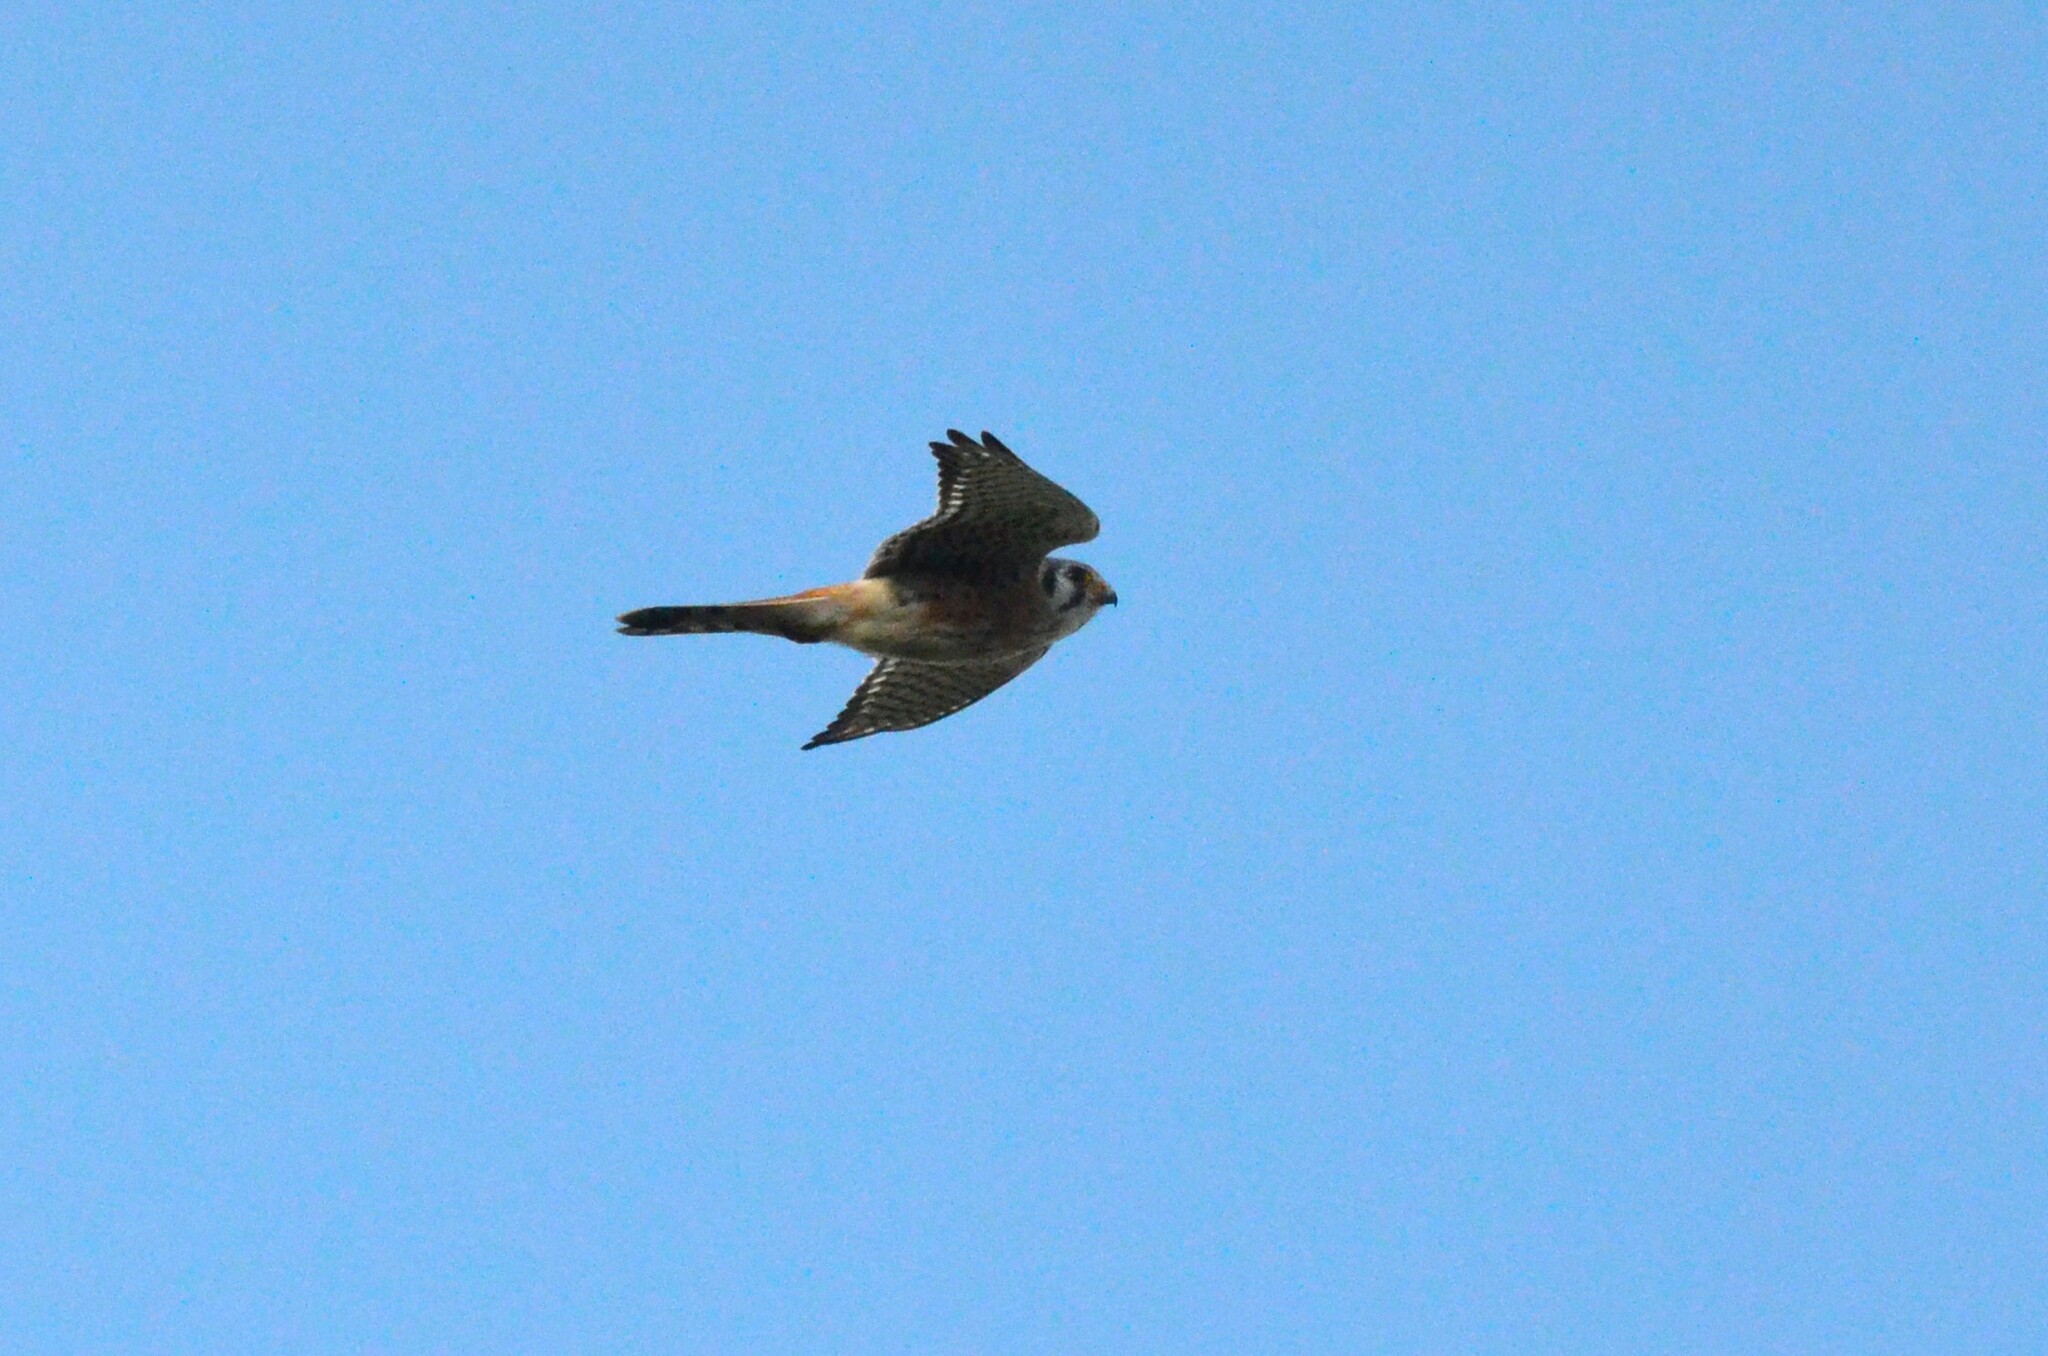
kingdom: Animalia
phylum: Chordata
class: Aves
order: Falconiformes
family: Falconidae
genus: Falco
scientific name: Falco sparverius
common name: American kestrel
